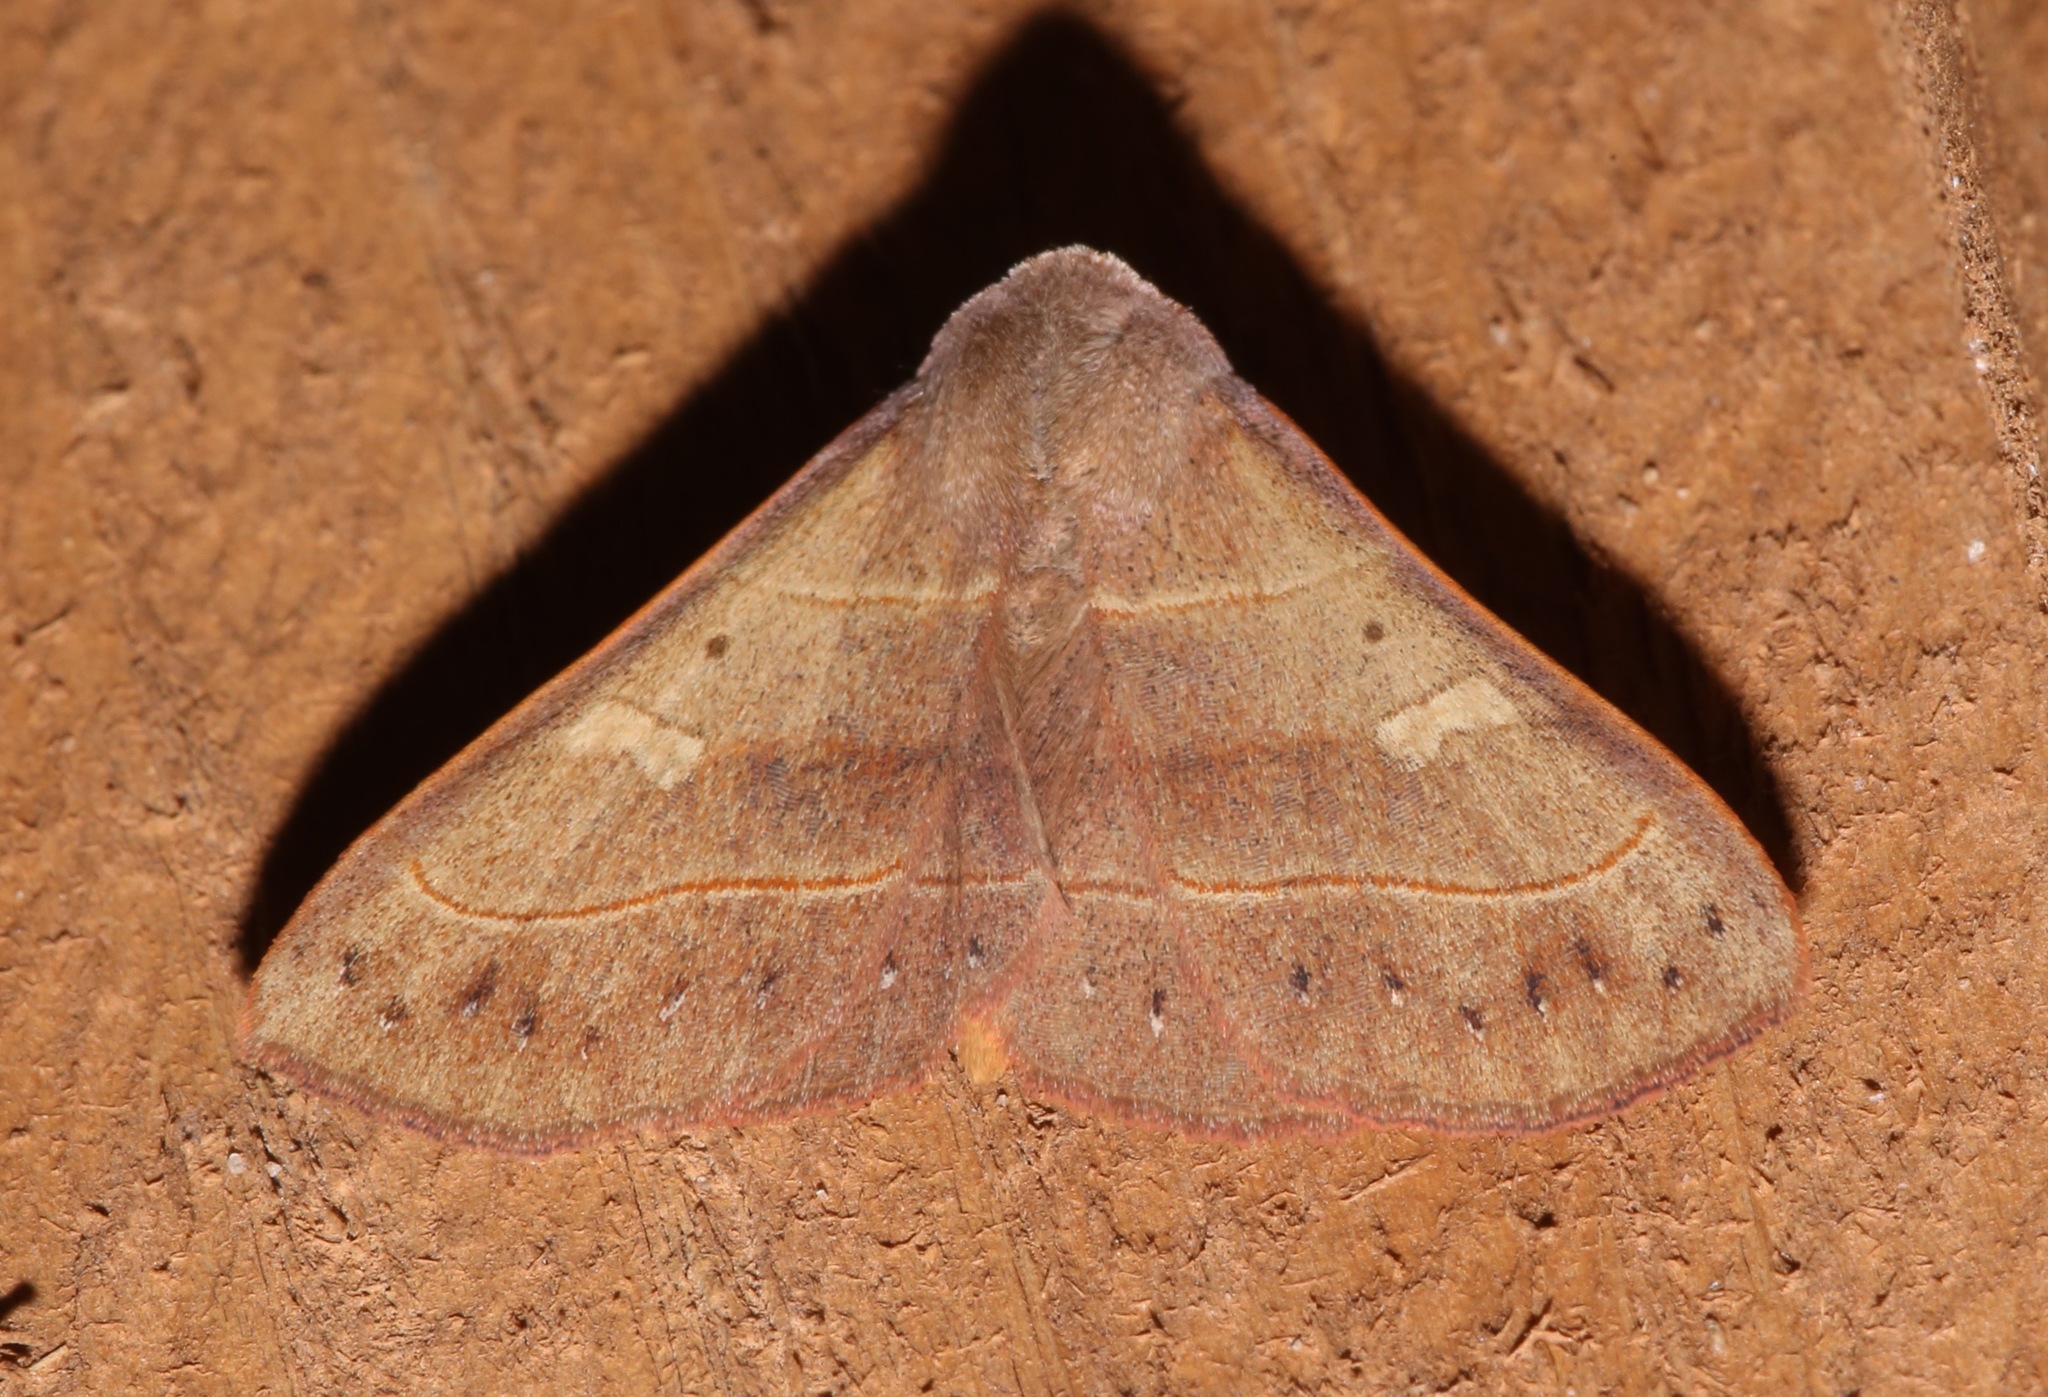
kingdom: Animalia
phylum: Arthropoda
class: Insecta
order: Lepidoptera
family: Erebidae
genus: Panopoda
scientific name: Panopoda rufimargo
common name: Red-lined panopoda moth
